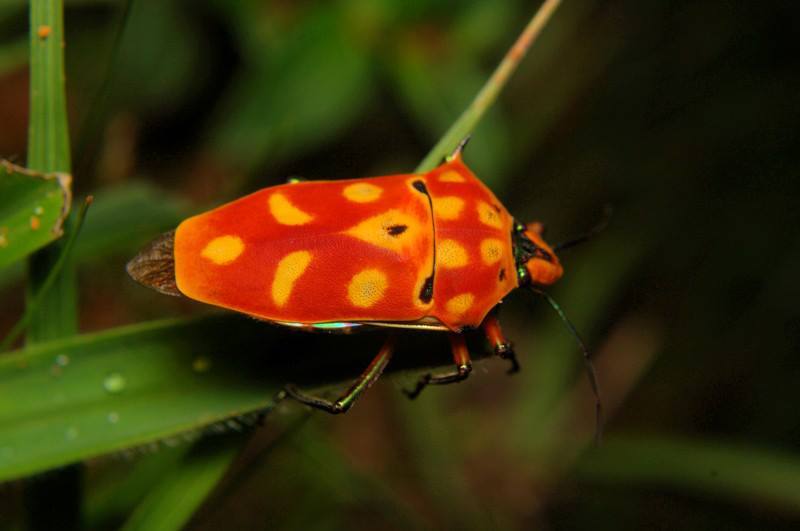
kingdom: Animalia
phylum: Arthropoda
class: Insecta
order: Hemiptera
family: Scutelleridae
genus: Cantao
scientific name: Cantao ocellatus
